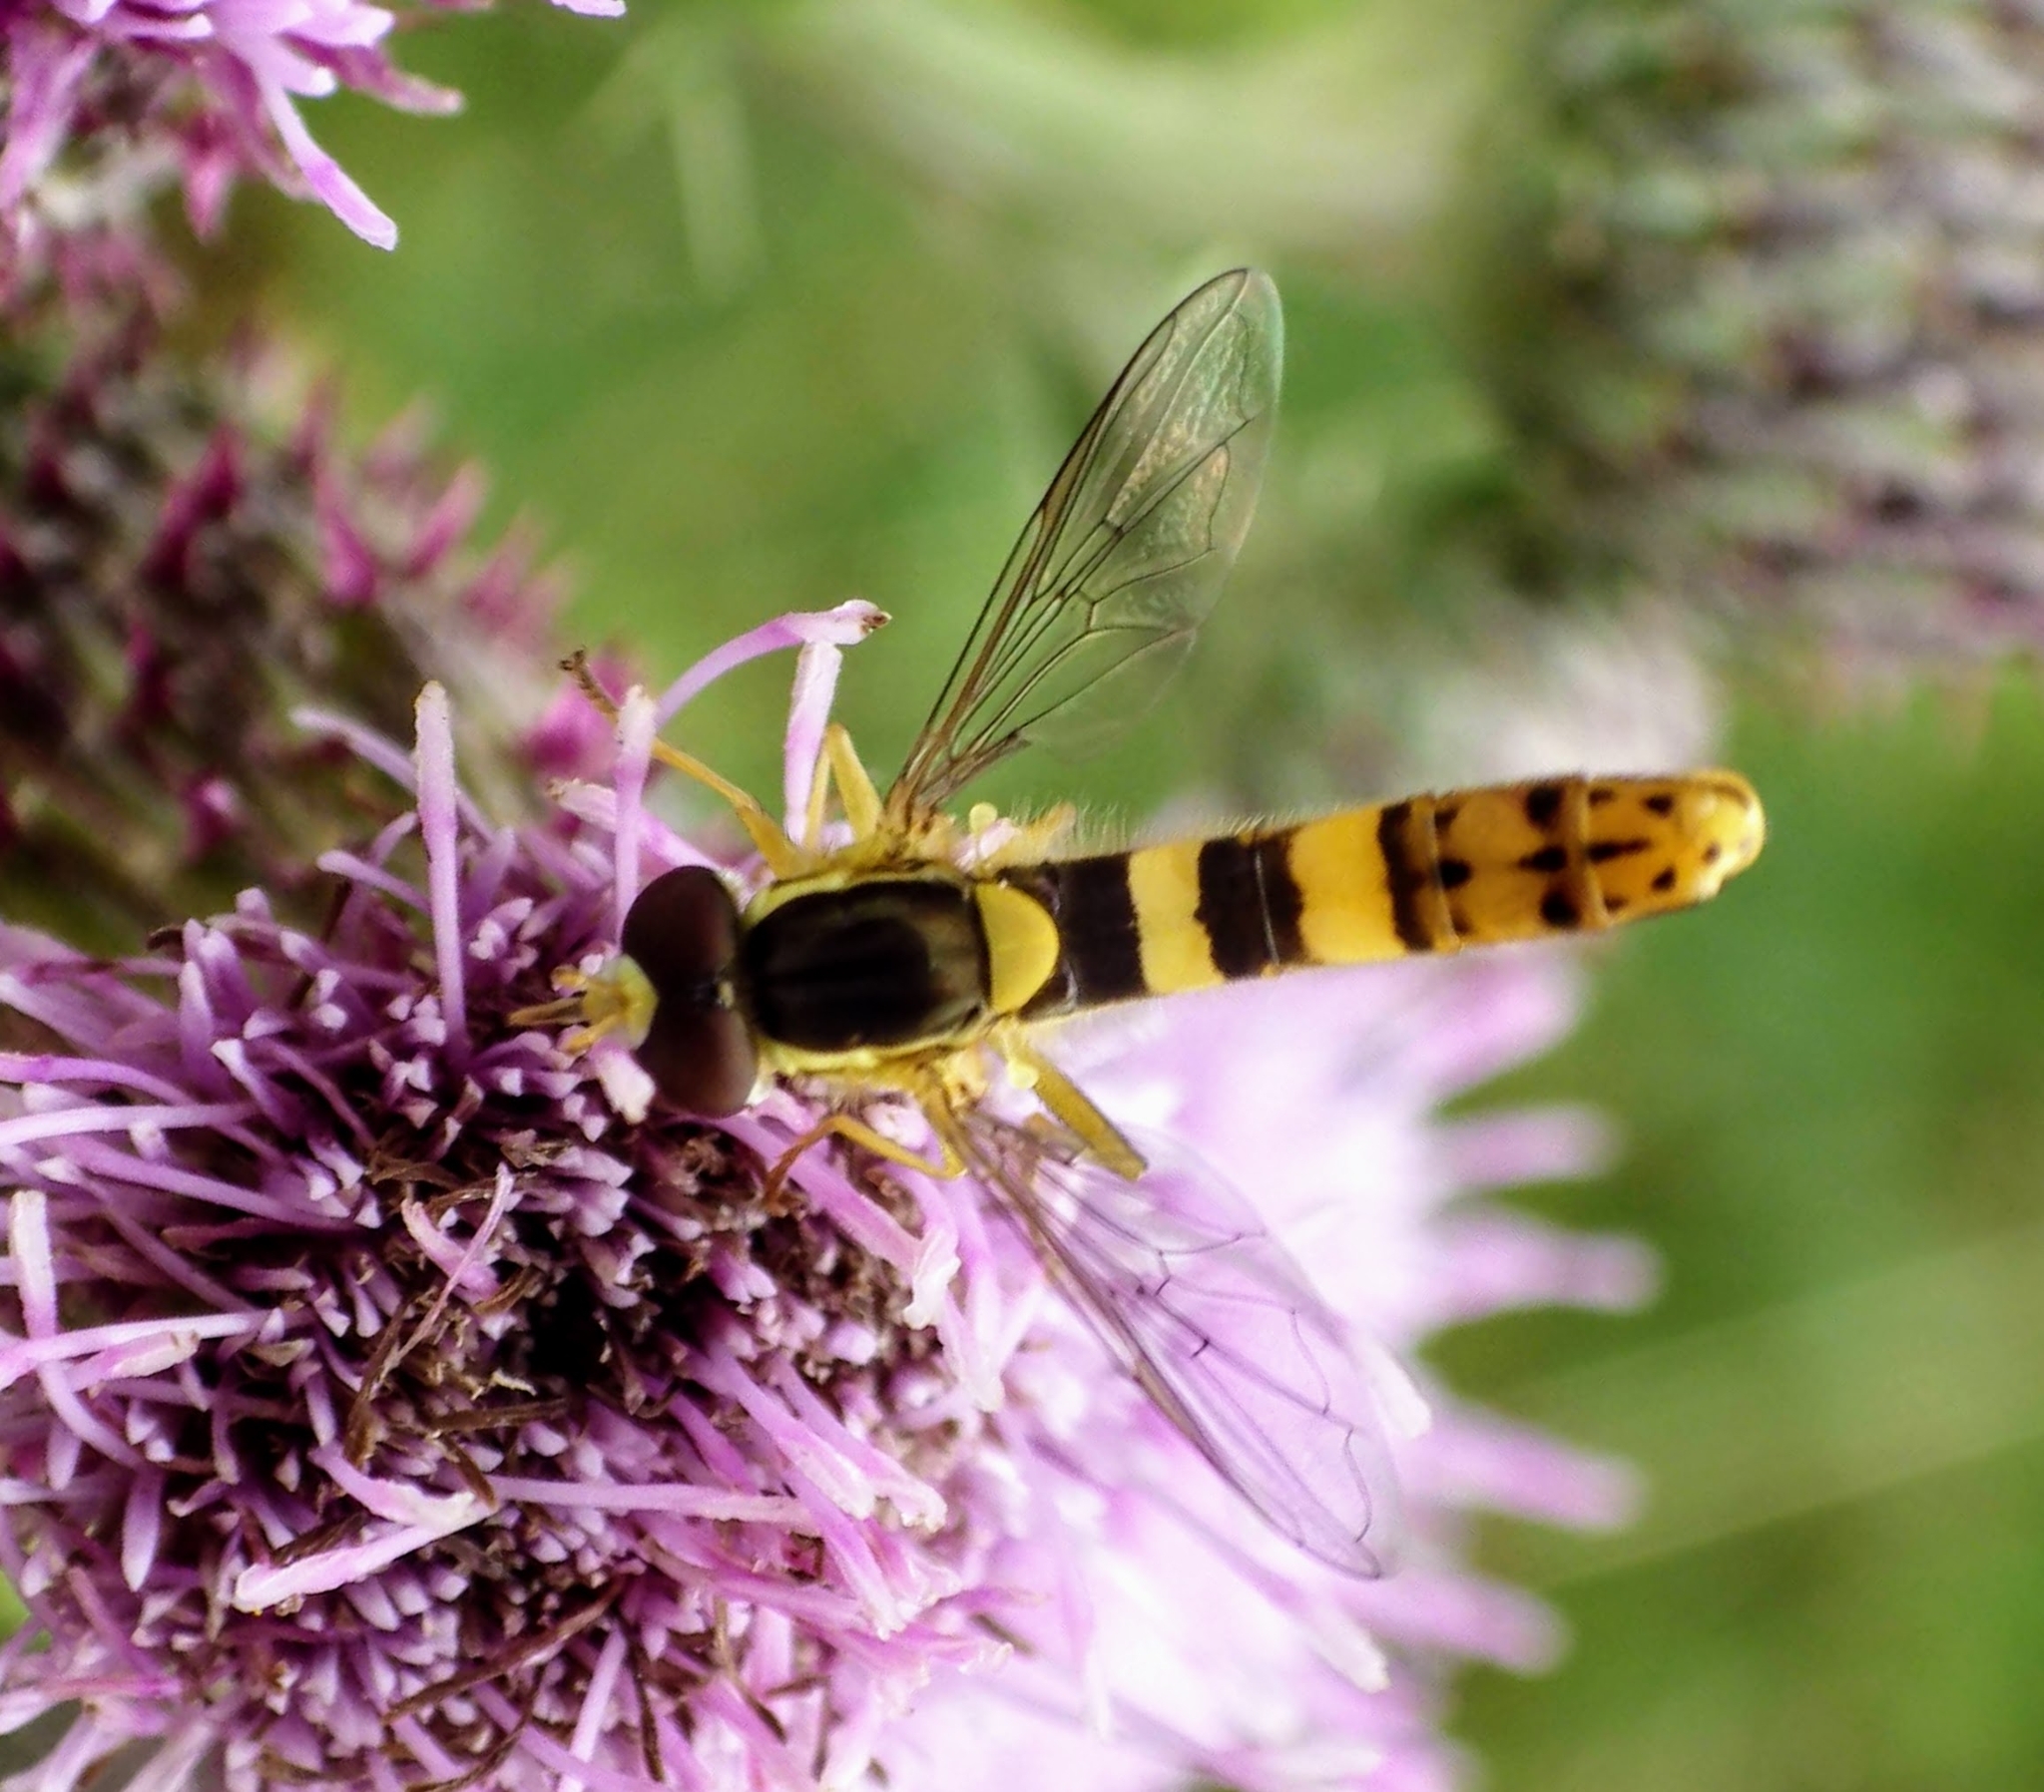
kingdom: Animalia
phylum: Arthropoda
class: Insecta
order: Diptera
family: Syrphidae
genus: Sphaerophoria
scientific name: Sphaerophoria scripta
